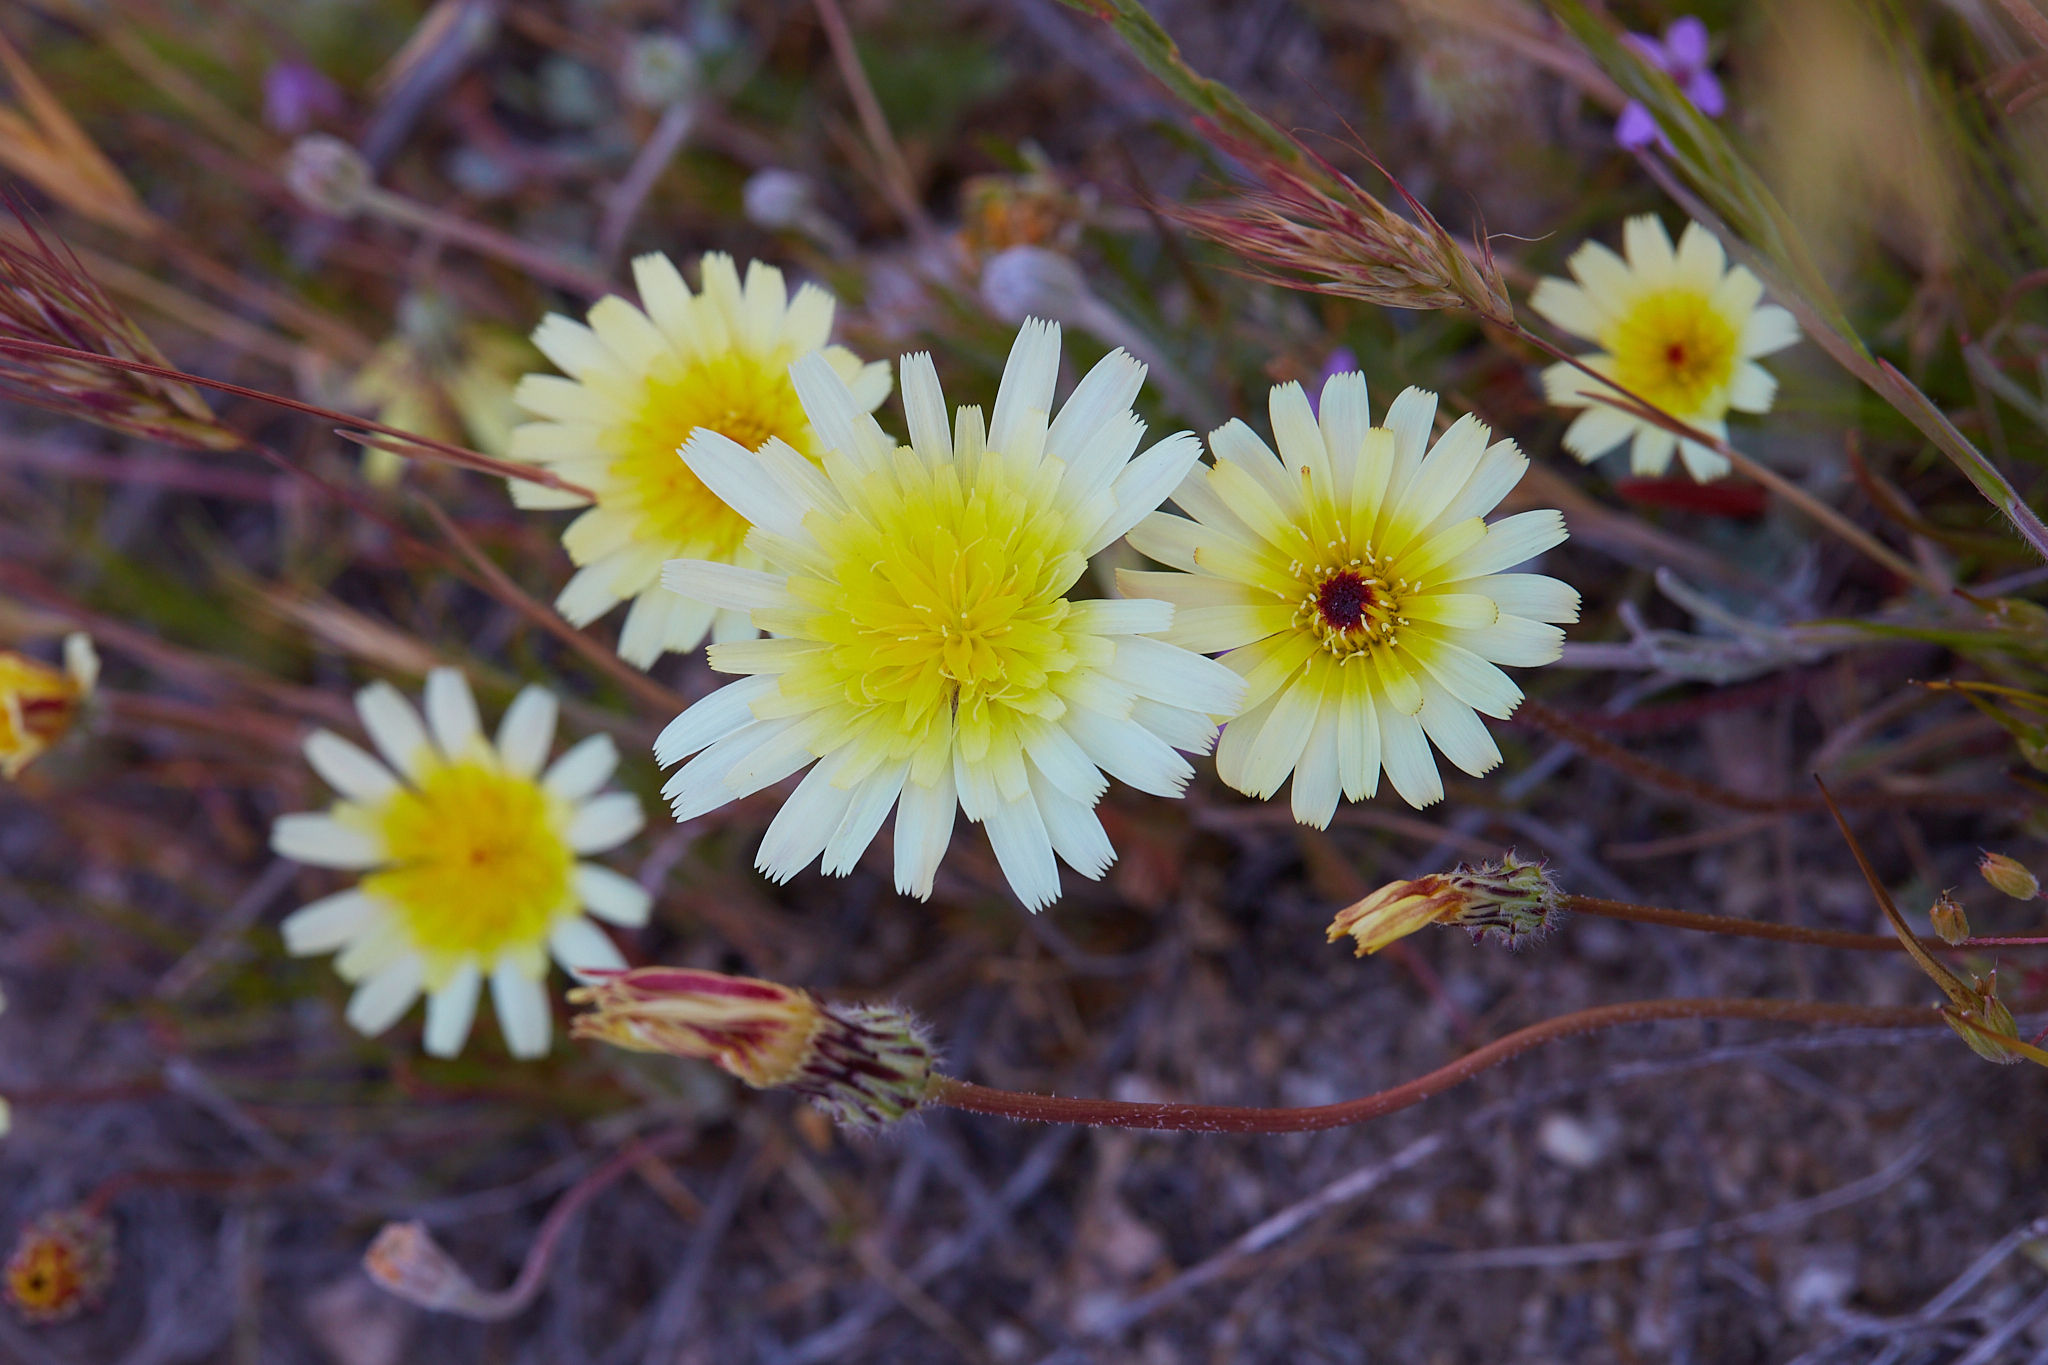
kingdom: Plantae
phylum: Tracheophyta
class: Magnoliopsida
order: Asterales
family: Asteraceae
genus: Malacothrix
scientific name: Malacothrix californica
